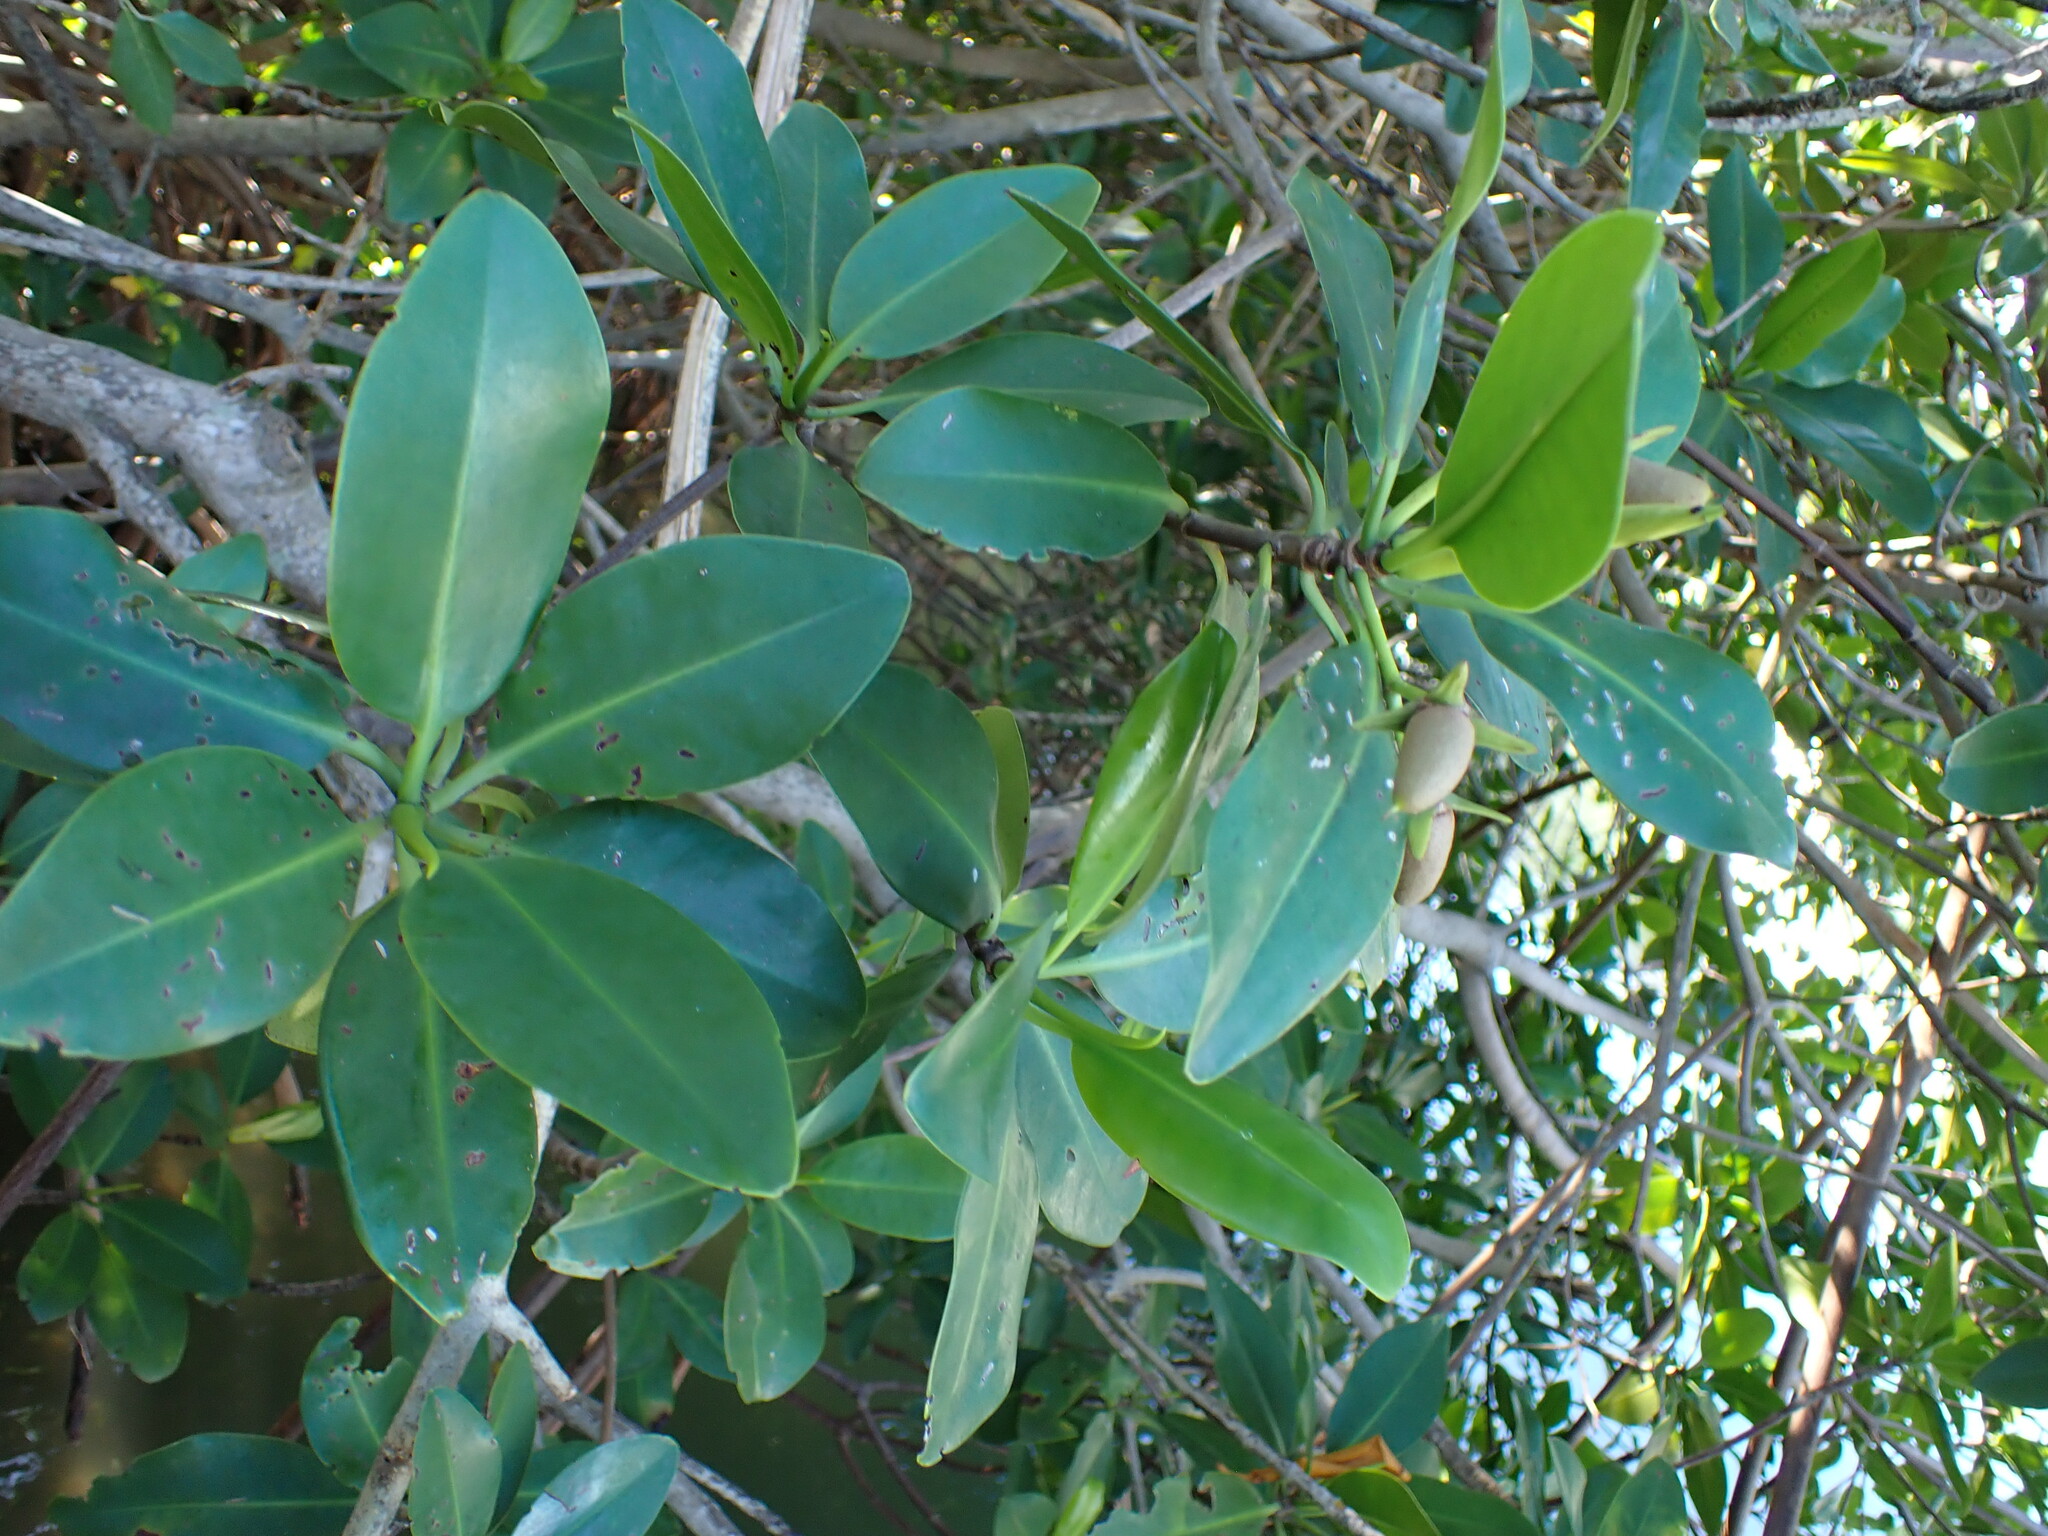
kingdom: Plantae
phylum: Tracheophyta
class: Magnoliopsida
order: Malpighiales
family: Rhizophoraceae
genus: Rhizophora
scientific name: Rhizophora mangle
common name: Red mangrove
